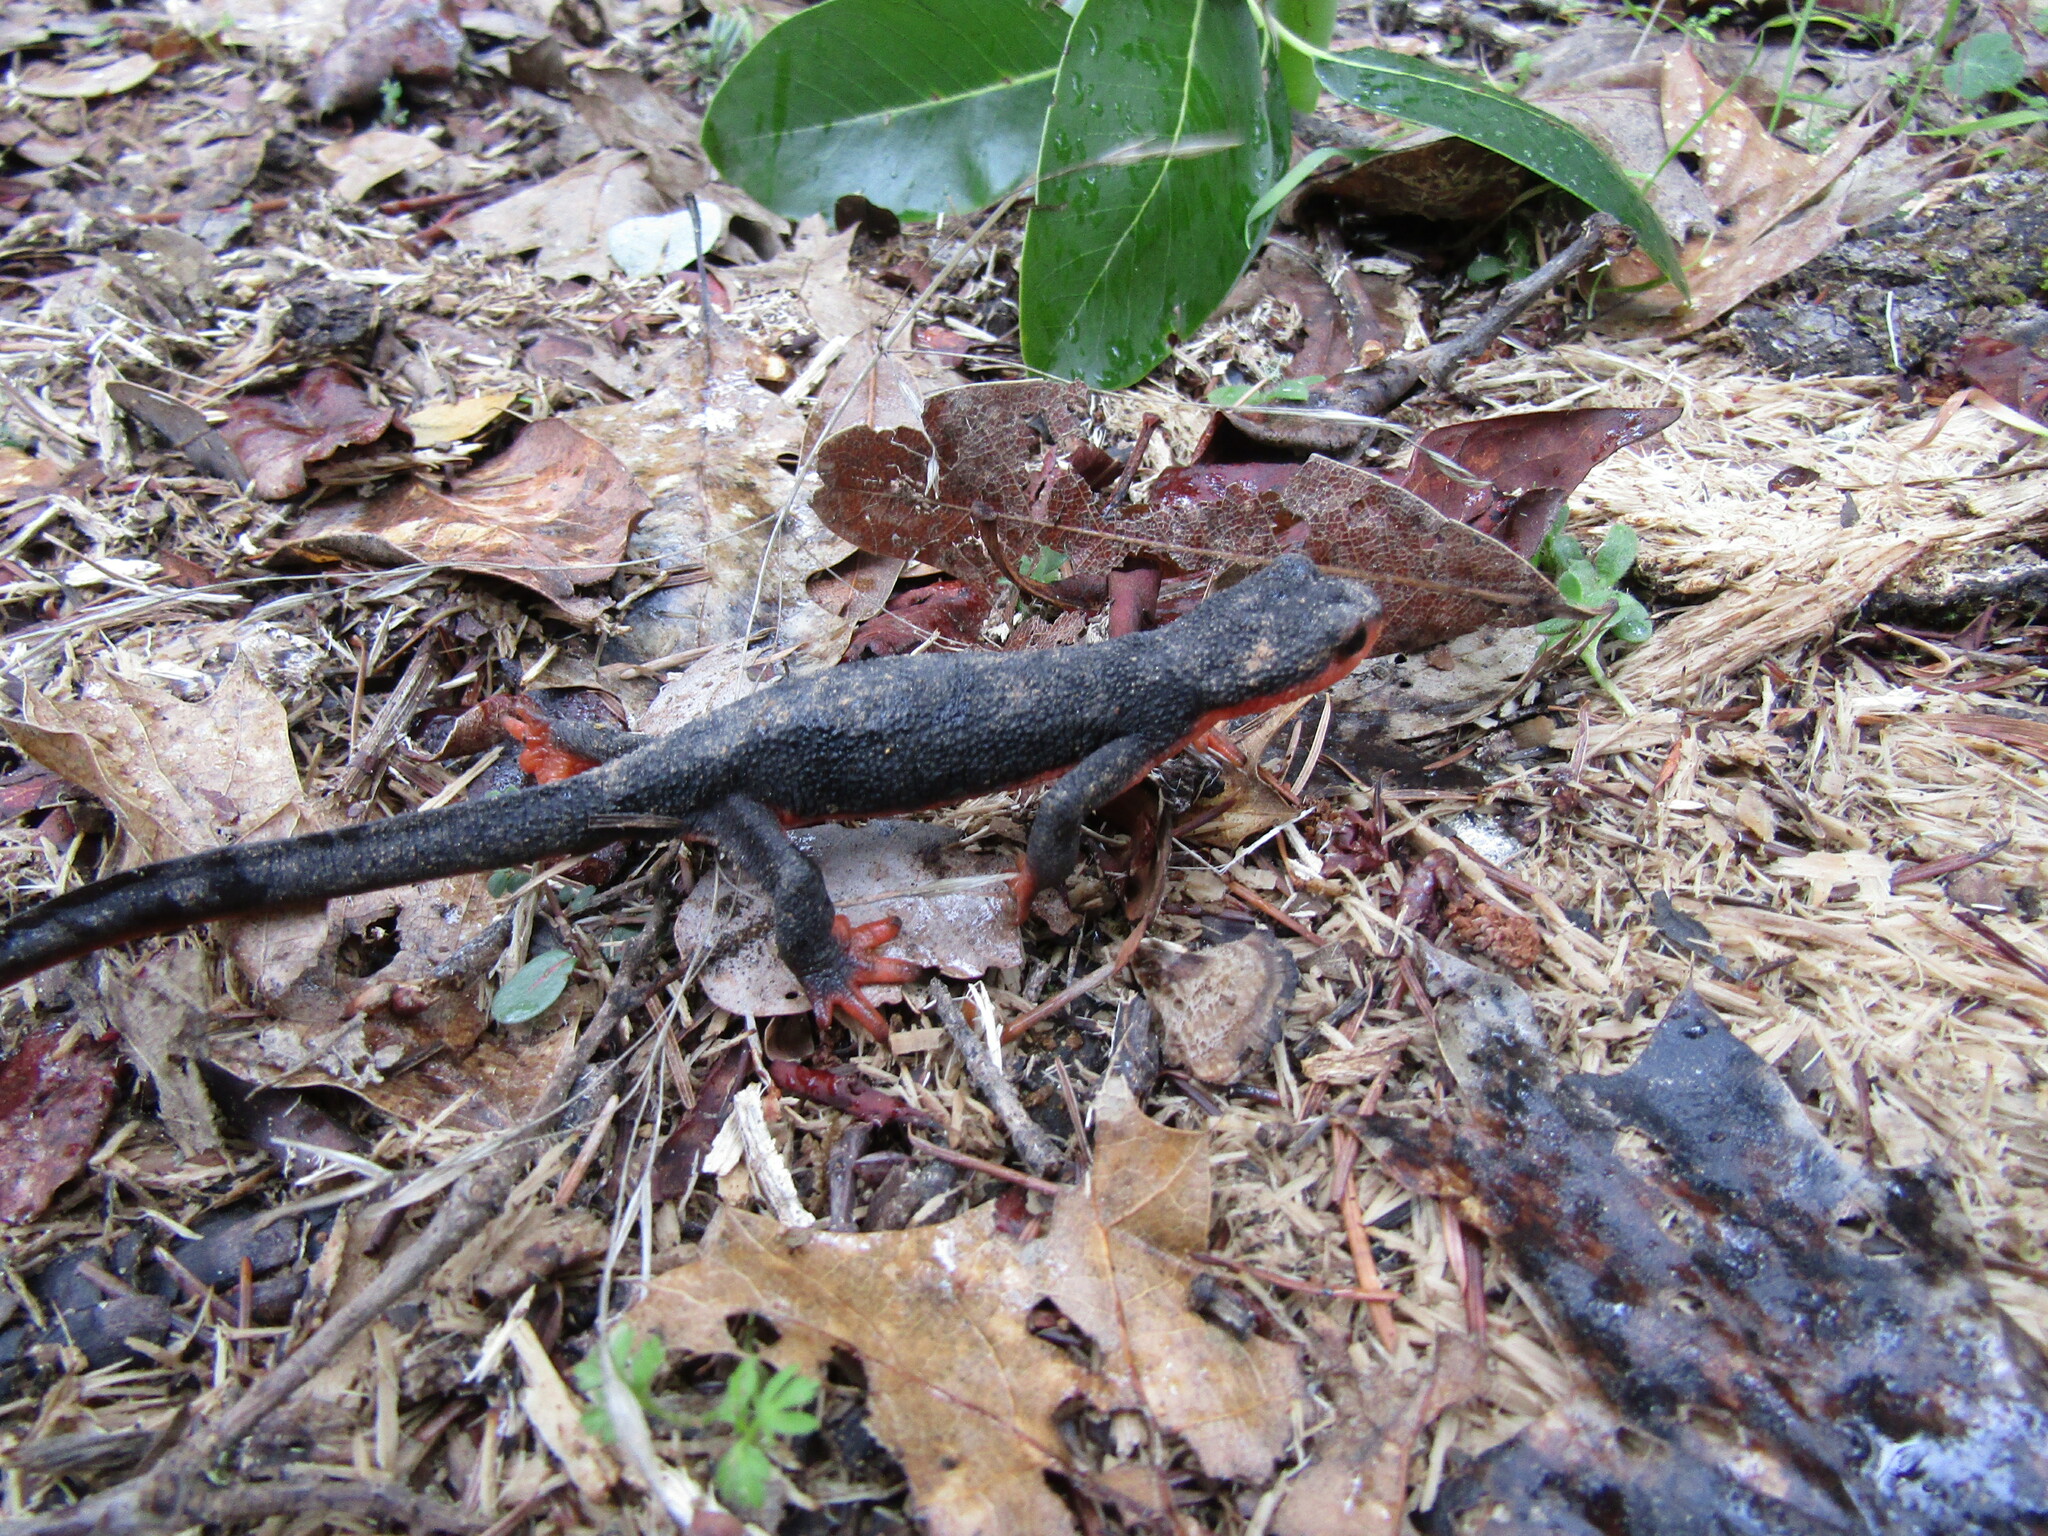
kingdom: Animalia
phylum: Chordata
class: Amphibia
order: Caudata
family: Salamandridae
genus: Taricha
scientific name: Taricha rivularis
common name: Red-bellied newt
